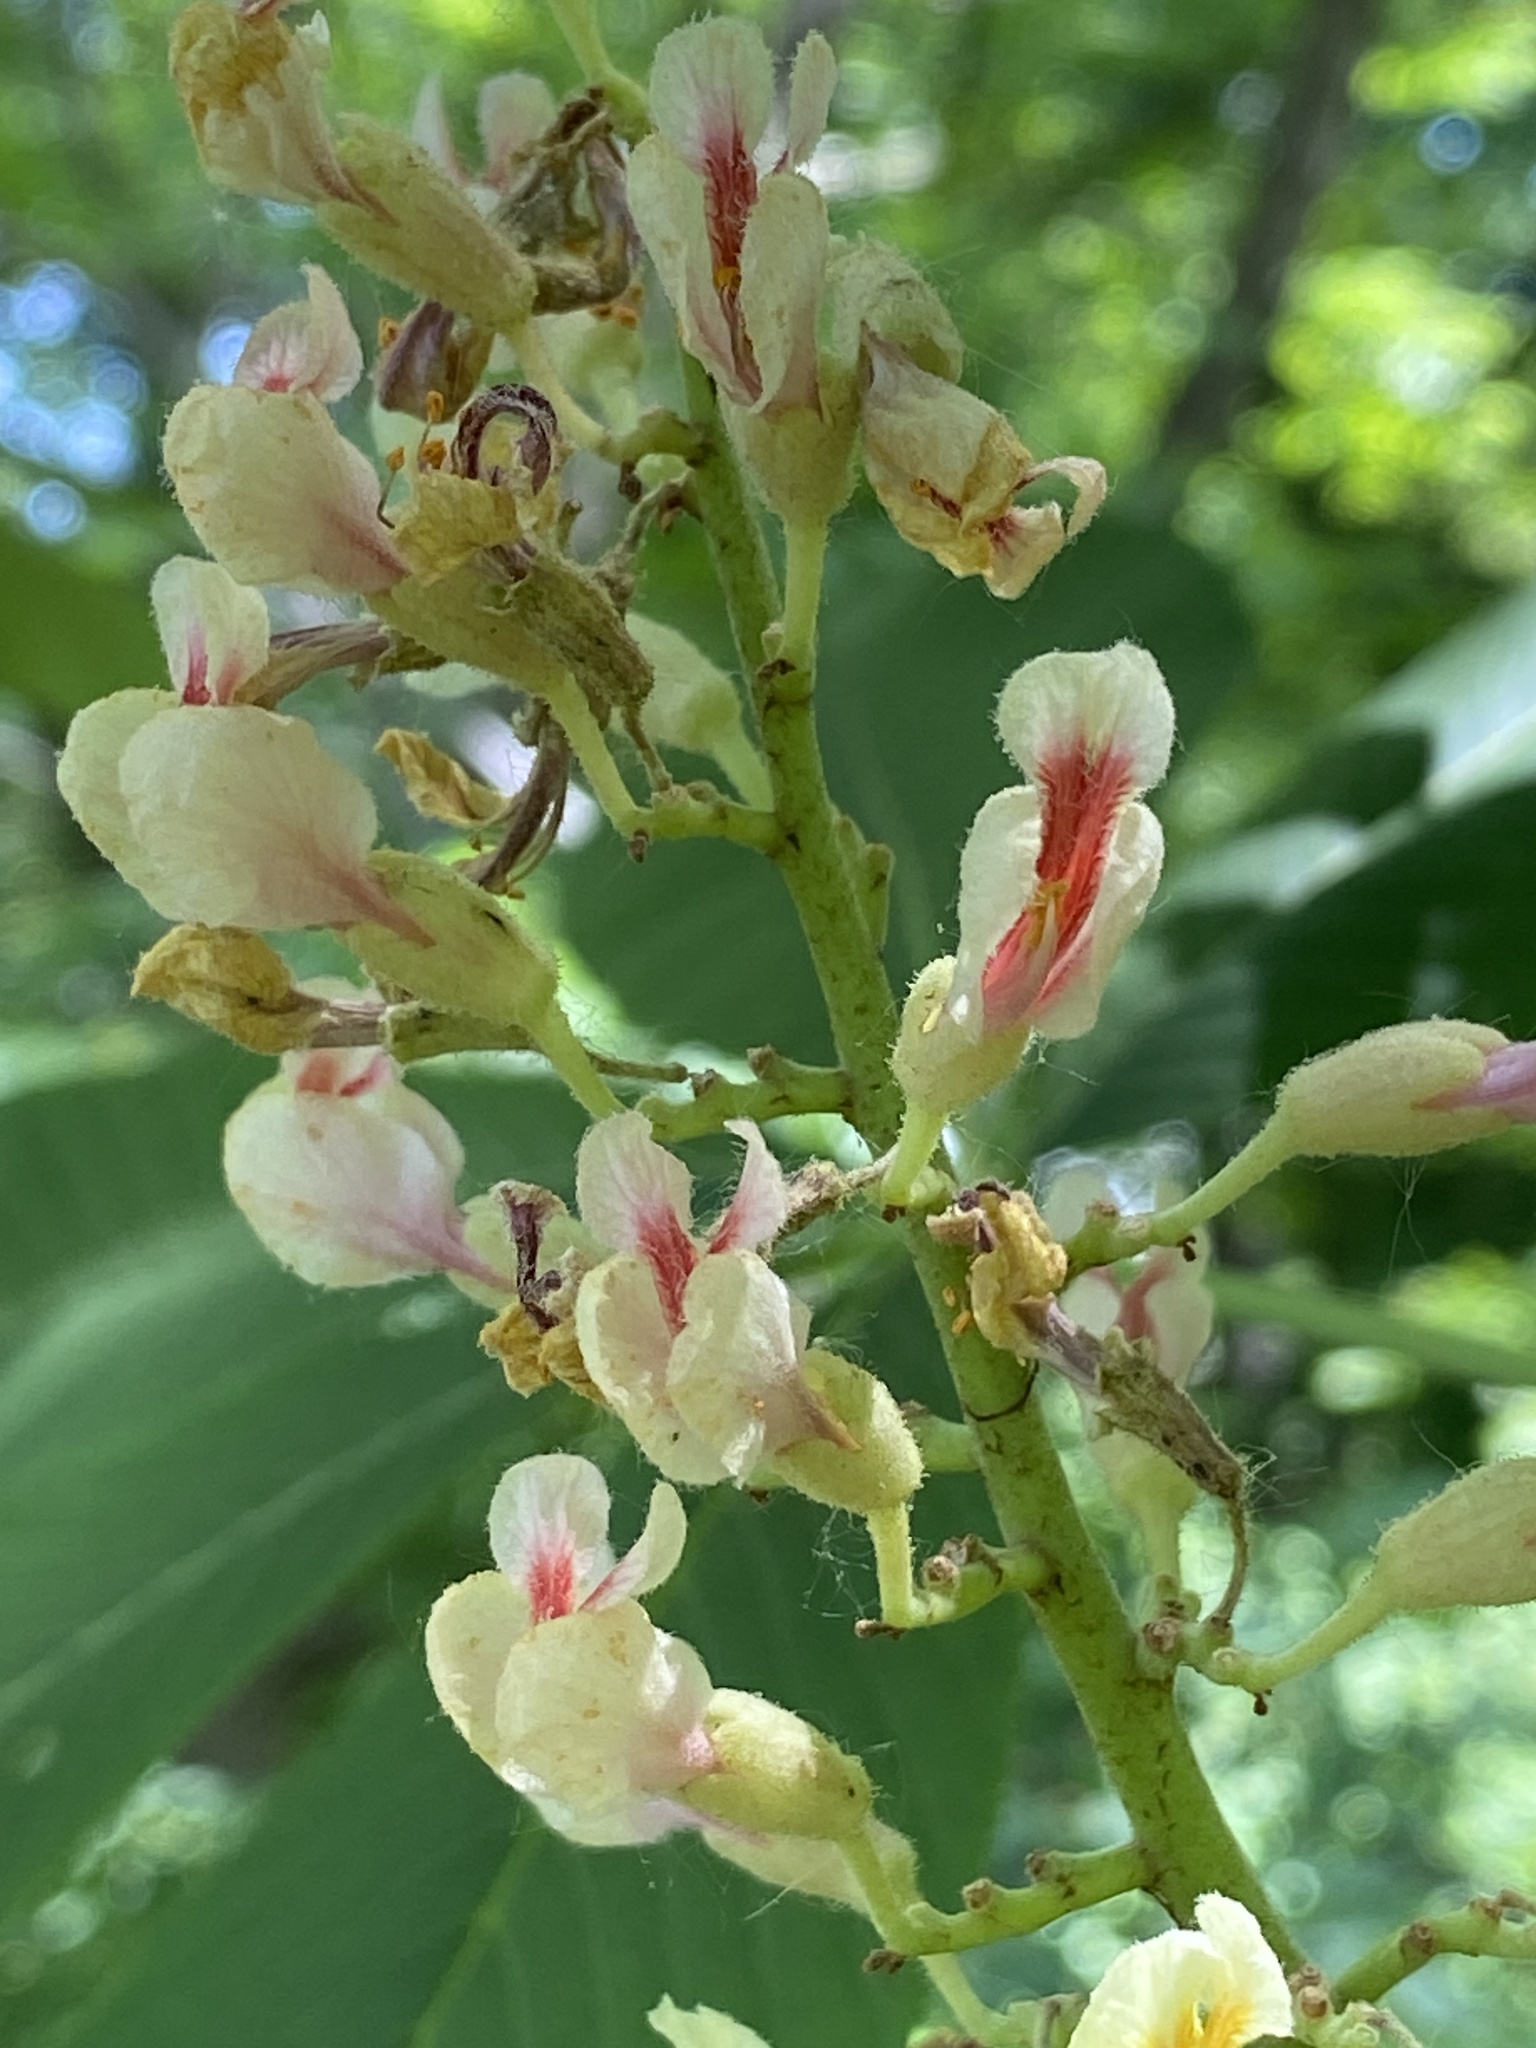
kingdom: Plantae
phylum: Tracheophyta
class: Magnoliopsida
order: Sapindales
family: Sapindaceae
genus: Aesculus
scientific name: Aesculus flava
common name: Yellow buckeye
